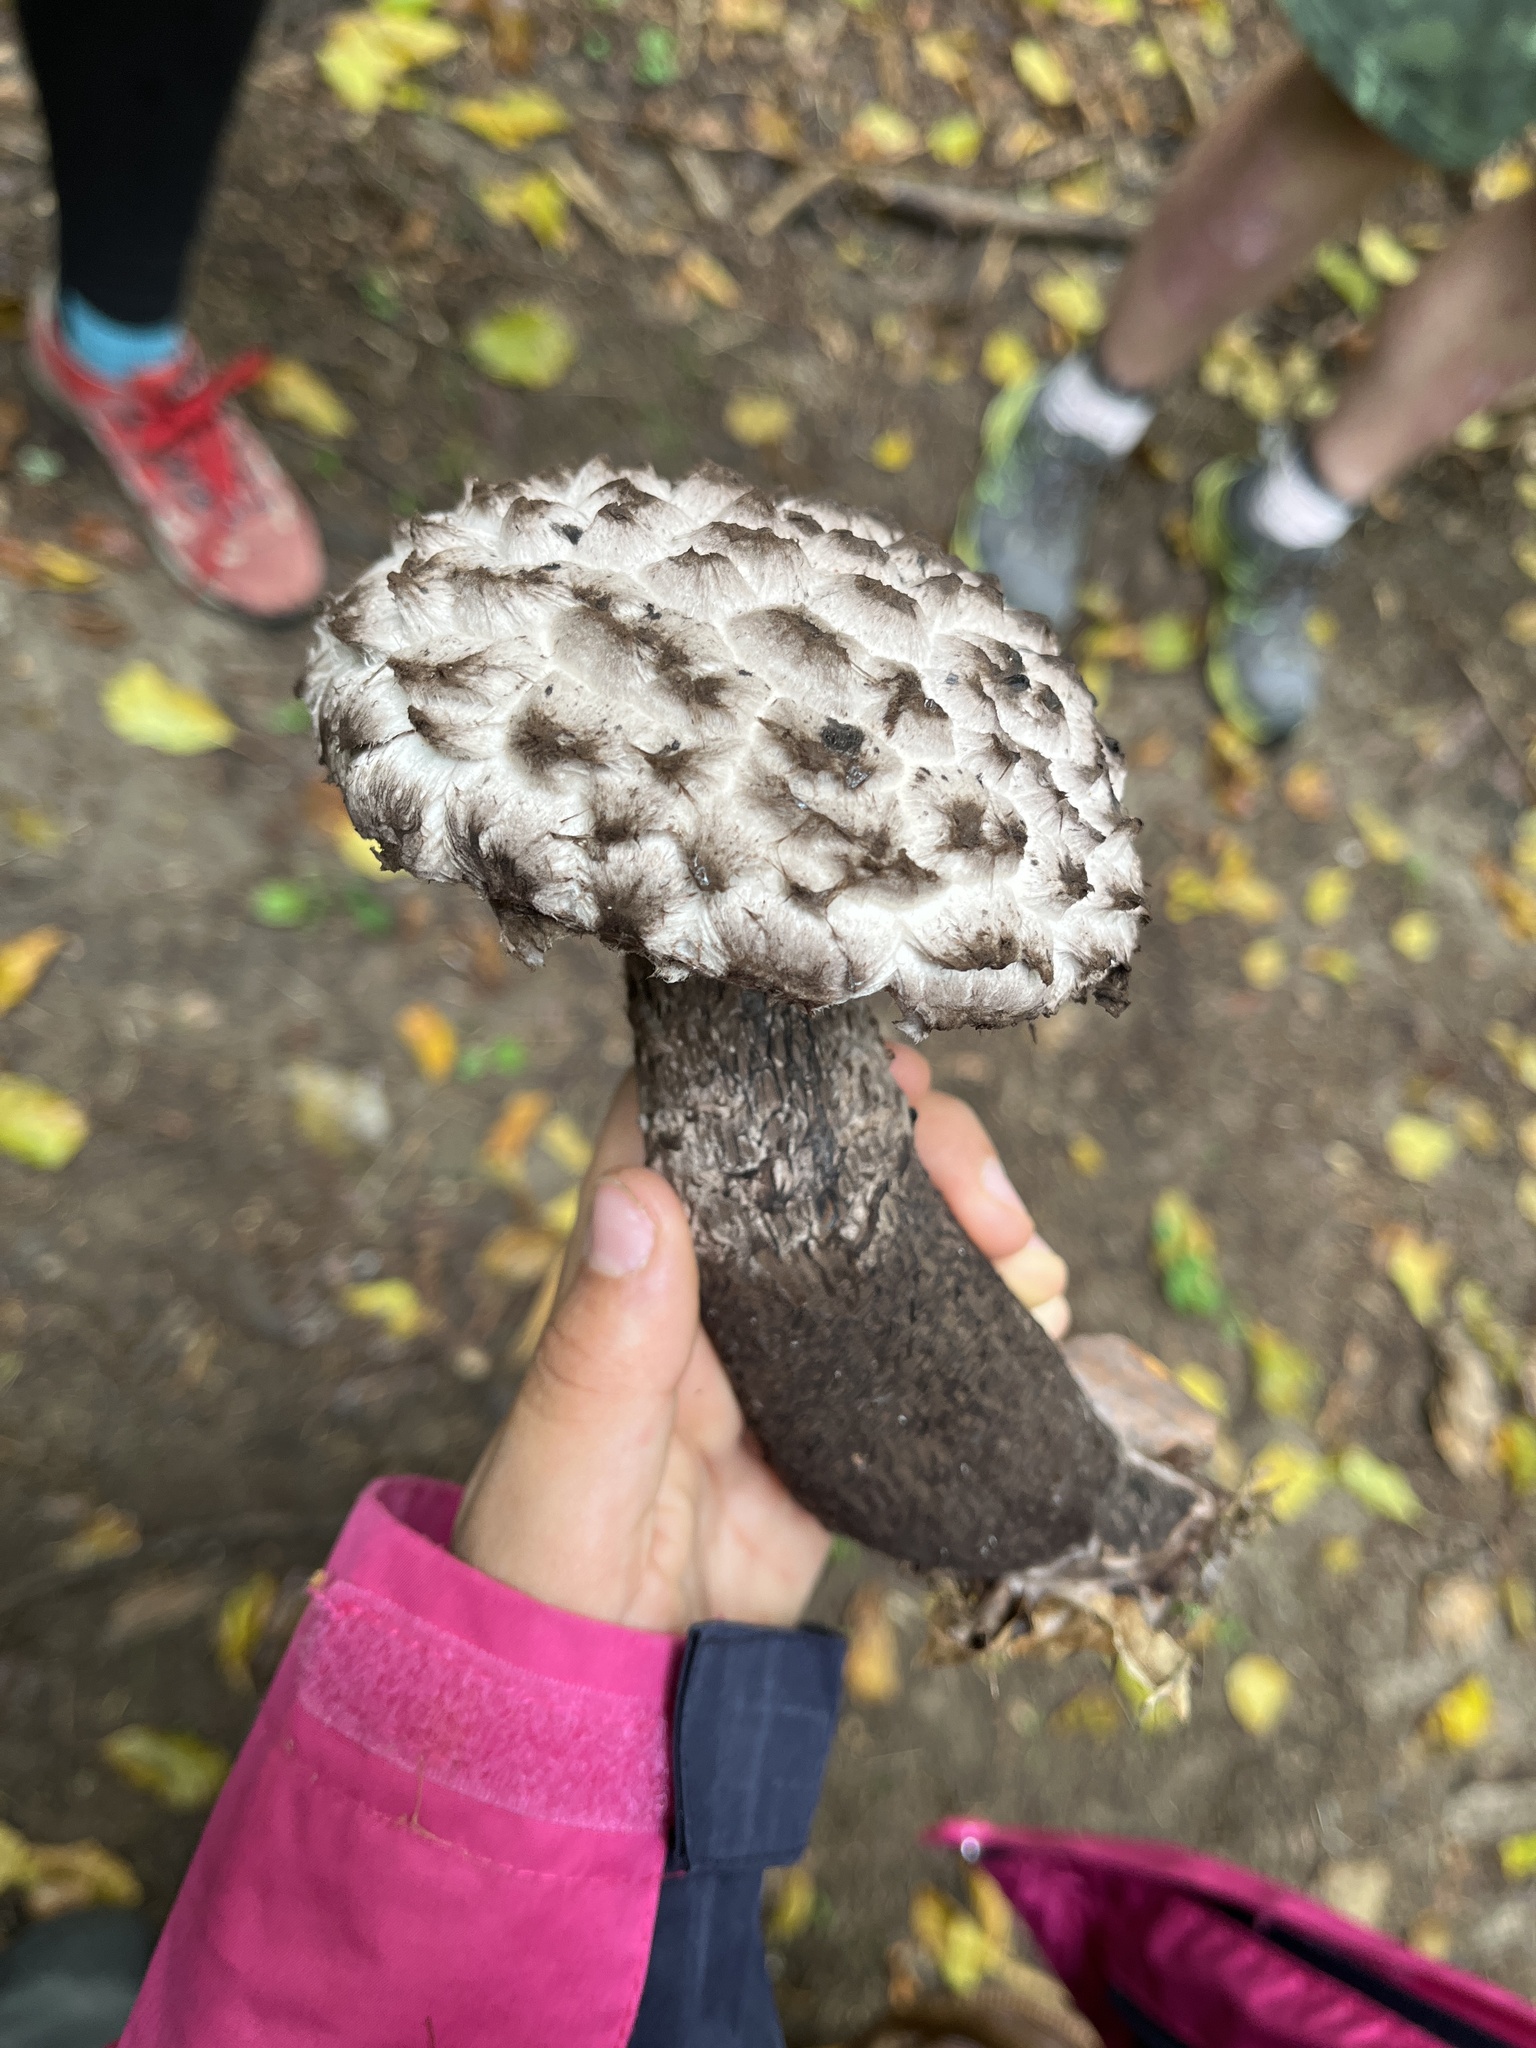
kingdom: Fungi
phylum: Basidiomycota
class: Agaricomycetes
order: Boletales
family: Boletaceae
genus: Strobilomyces
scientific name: Strobilomyces strobilaceus
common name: Old man of the woods
